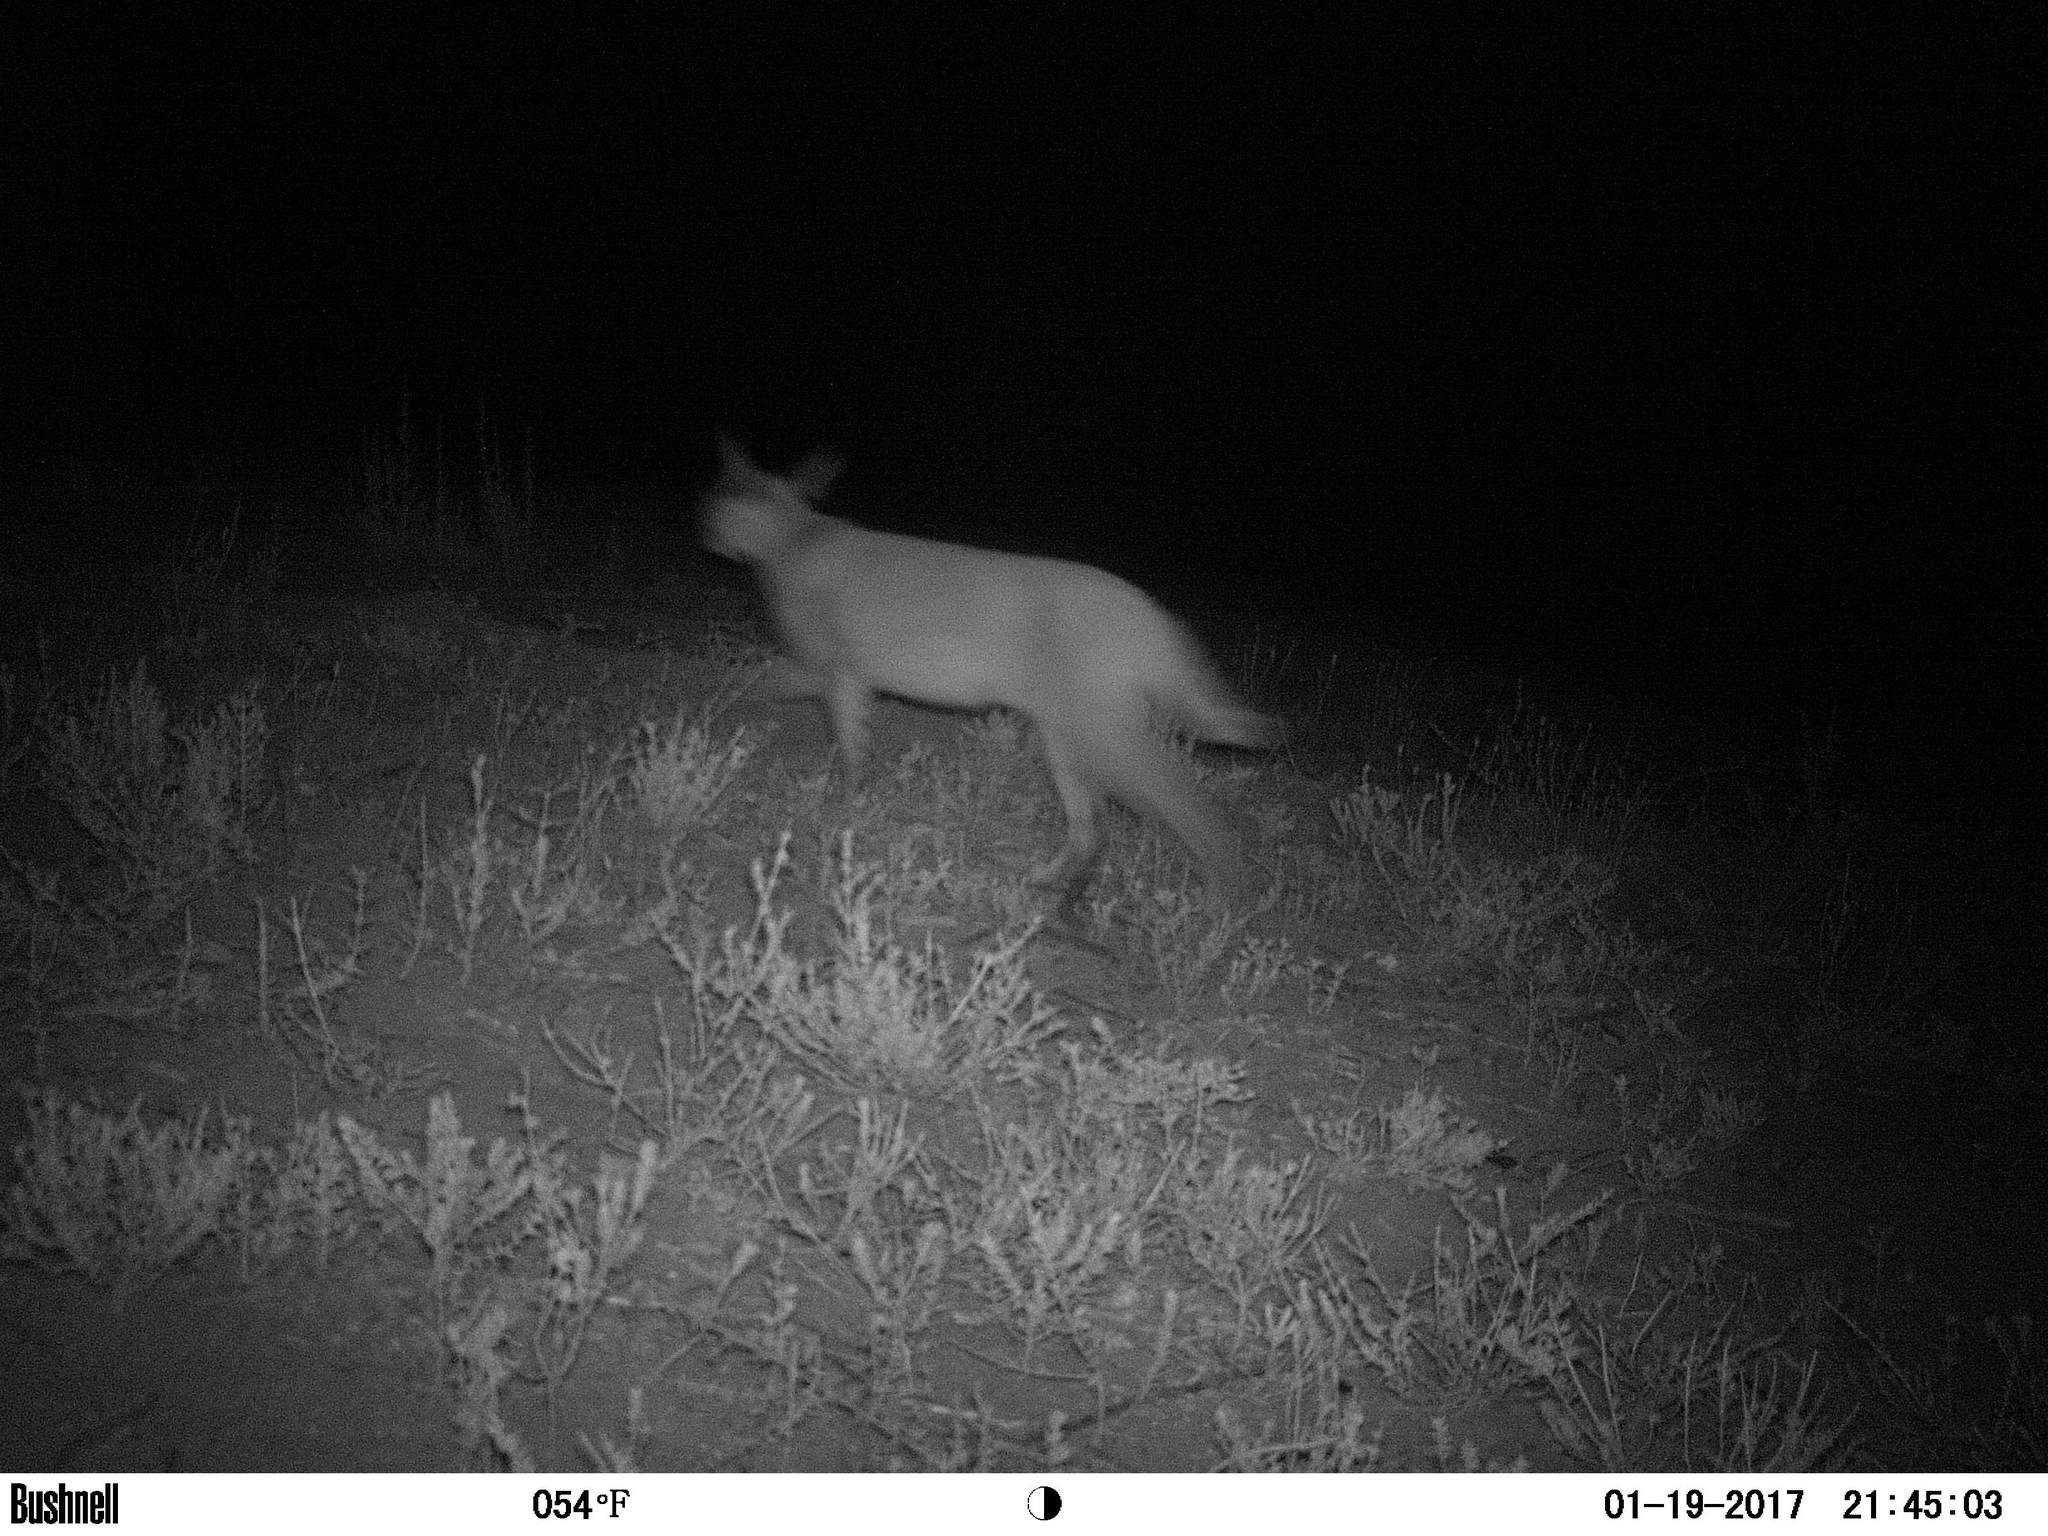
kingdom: Animalia
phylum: Chordata
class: Mammalia
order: Carnivora
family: Felidae
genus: Caracal
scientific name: Caracal caracal
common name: Caracal
